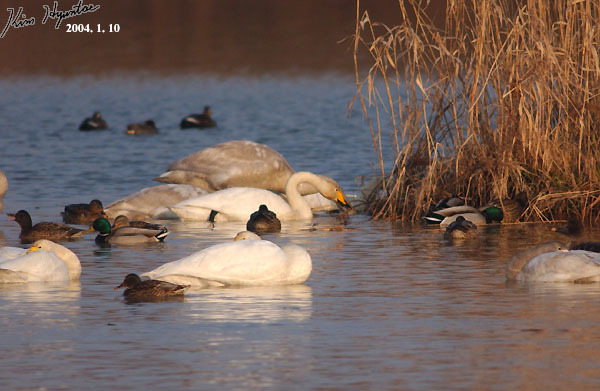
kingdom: Animalia
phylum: Chordata
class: Aves
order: Anseriformes
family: Anatidae
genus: Cygnus
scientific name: Cygnus cygnus
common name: Whooper swan
